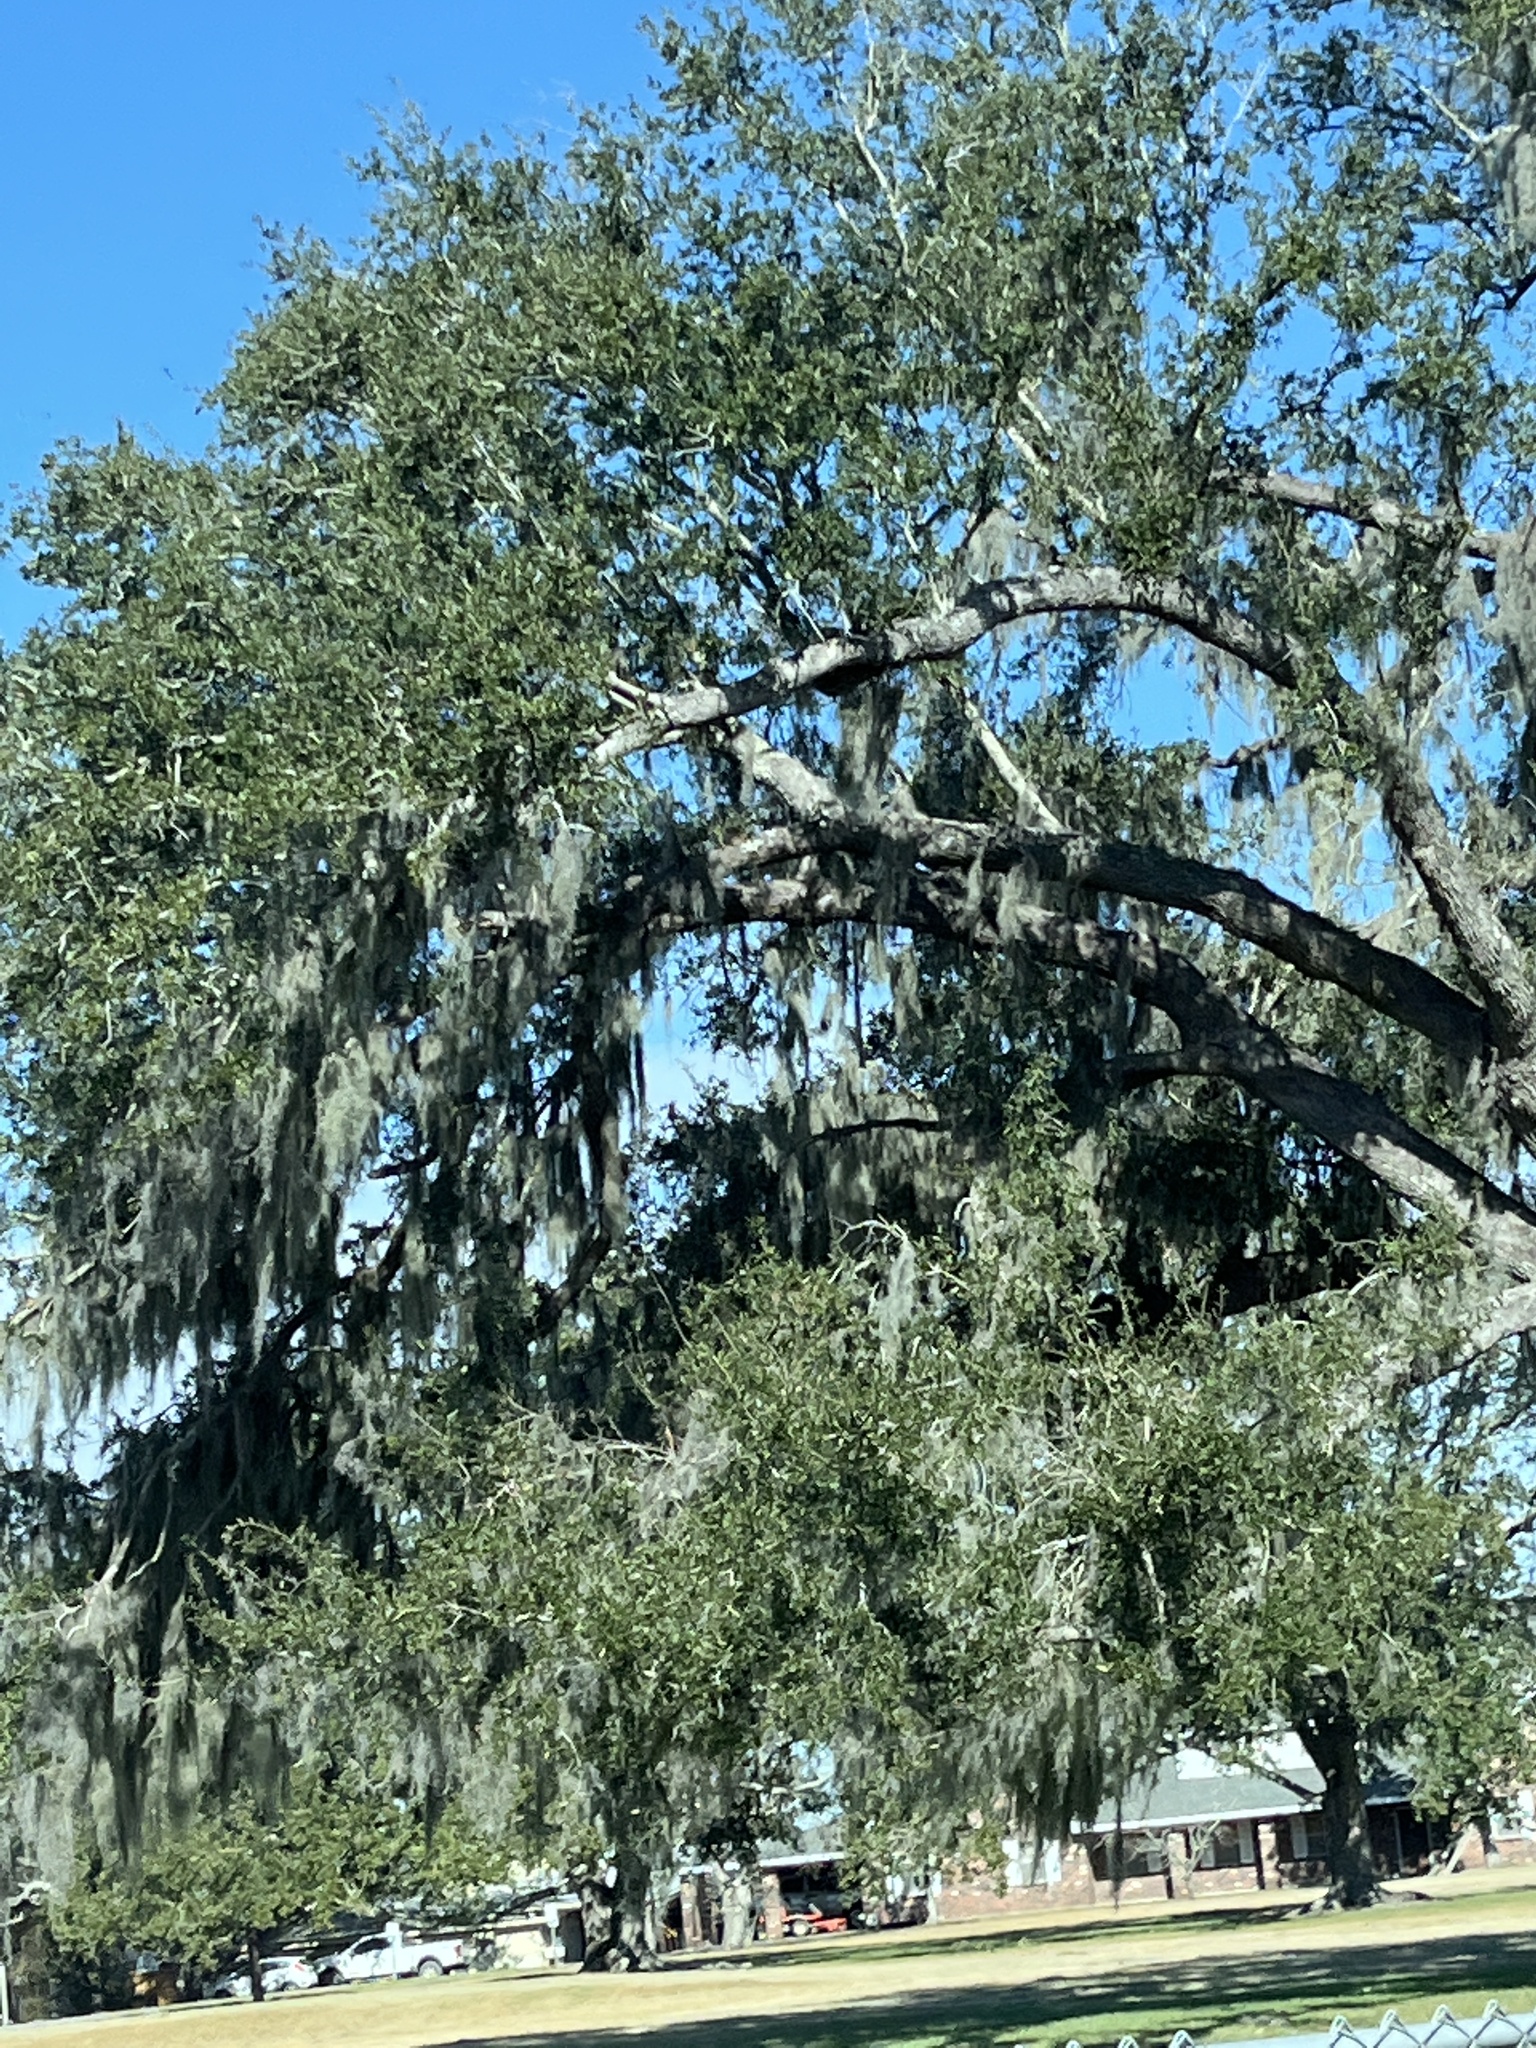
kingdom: Plantae
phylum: Tracheophyta
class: Liliopsida
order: Poales
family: Bromeliaceae
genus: Tillandsia
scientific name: Tillandsia usneoides
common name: Spanish moss
